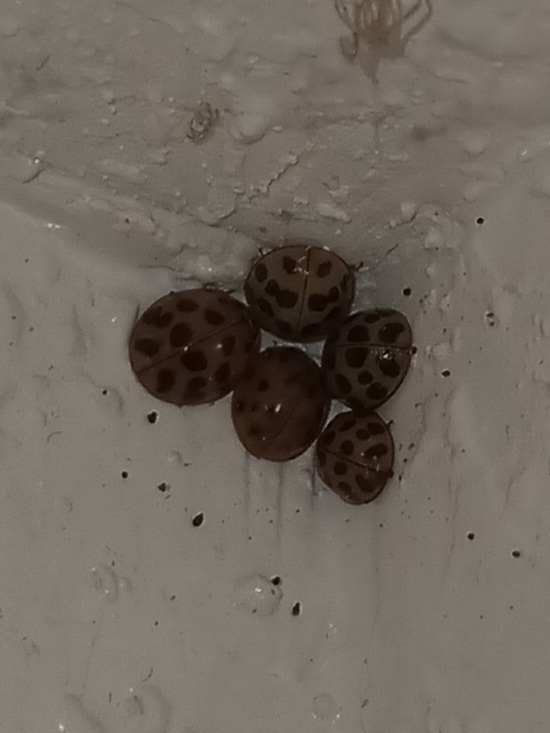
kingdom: Animalia
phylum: Arthropoda
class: Insecta
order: Coleoptera
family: Coccinellidae
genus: Harmonia
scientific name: Harmonia axyridis
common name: Harlequin ladybird
